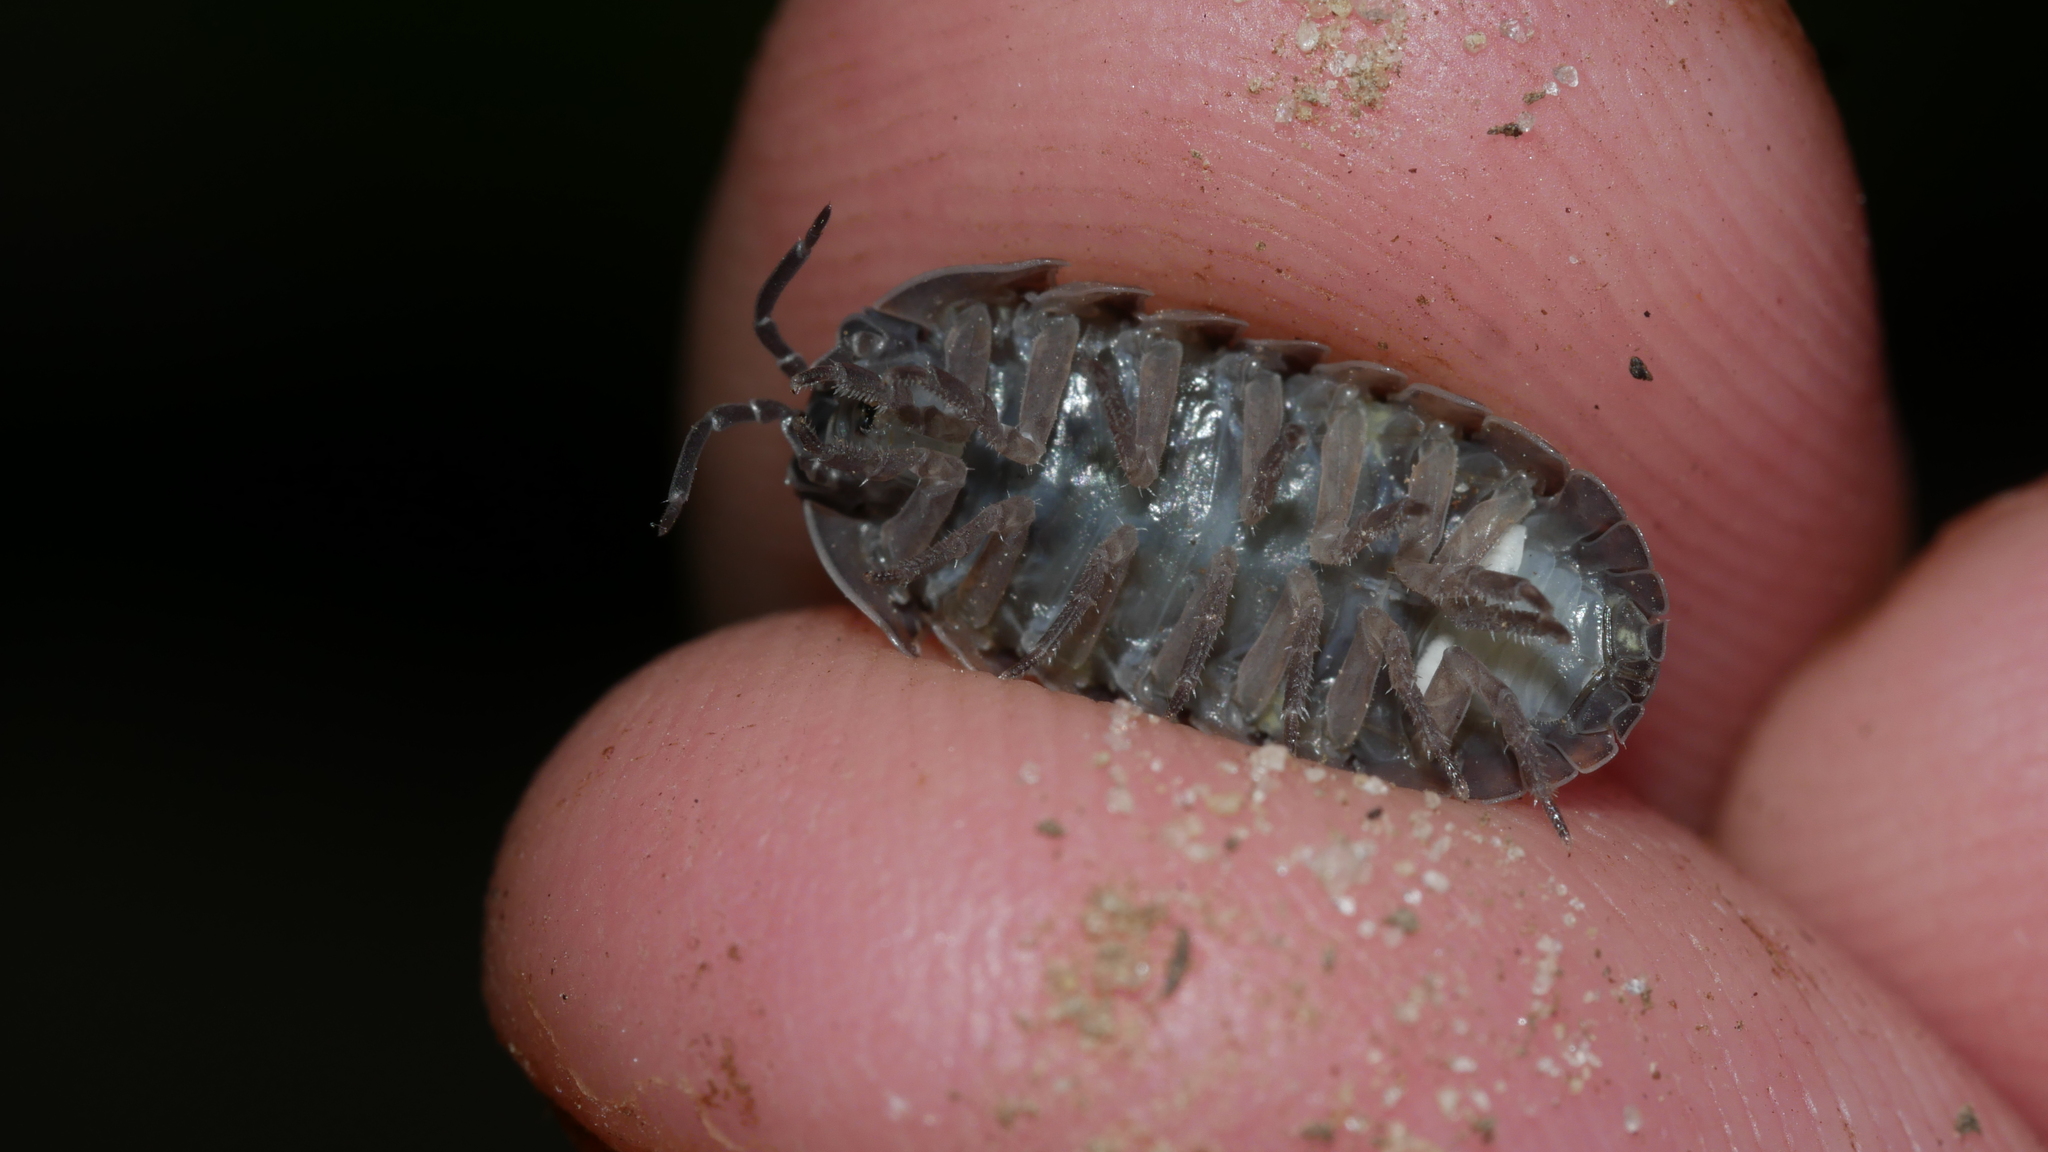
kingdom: Animalia
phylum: Arthropoda
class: Malacostraca
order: Isopoda
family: Armadillidiidae
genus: Armadillidium
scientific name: Armadillidium vulgare
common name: Common pill woodlouse
